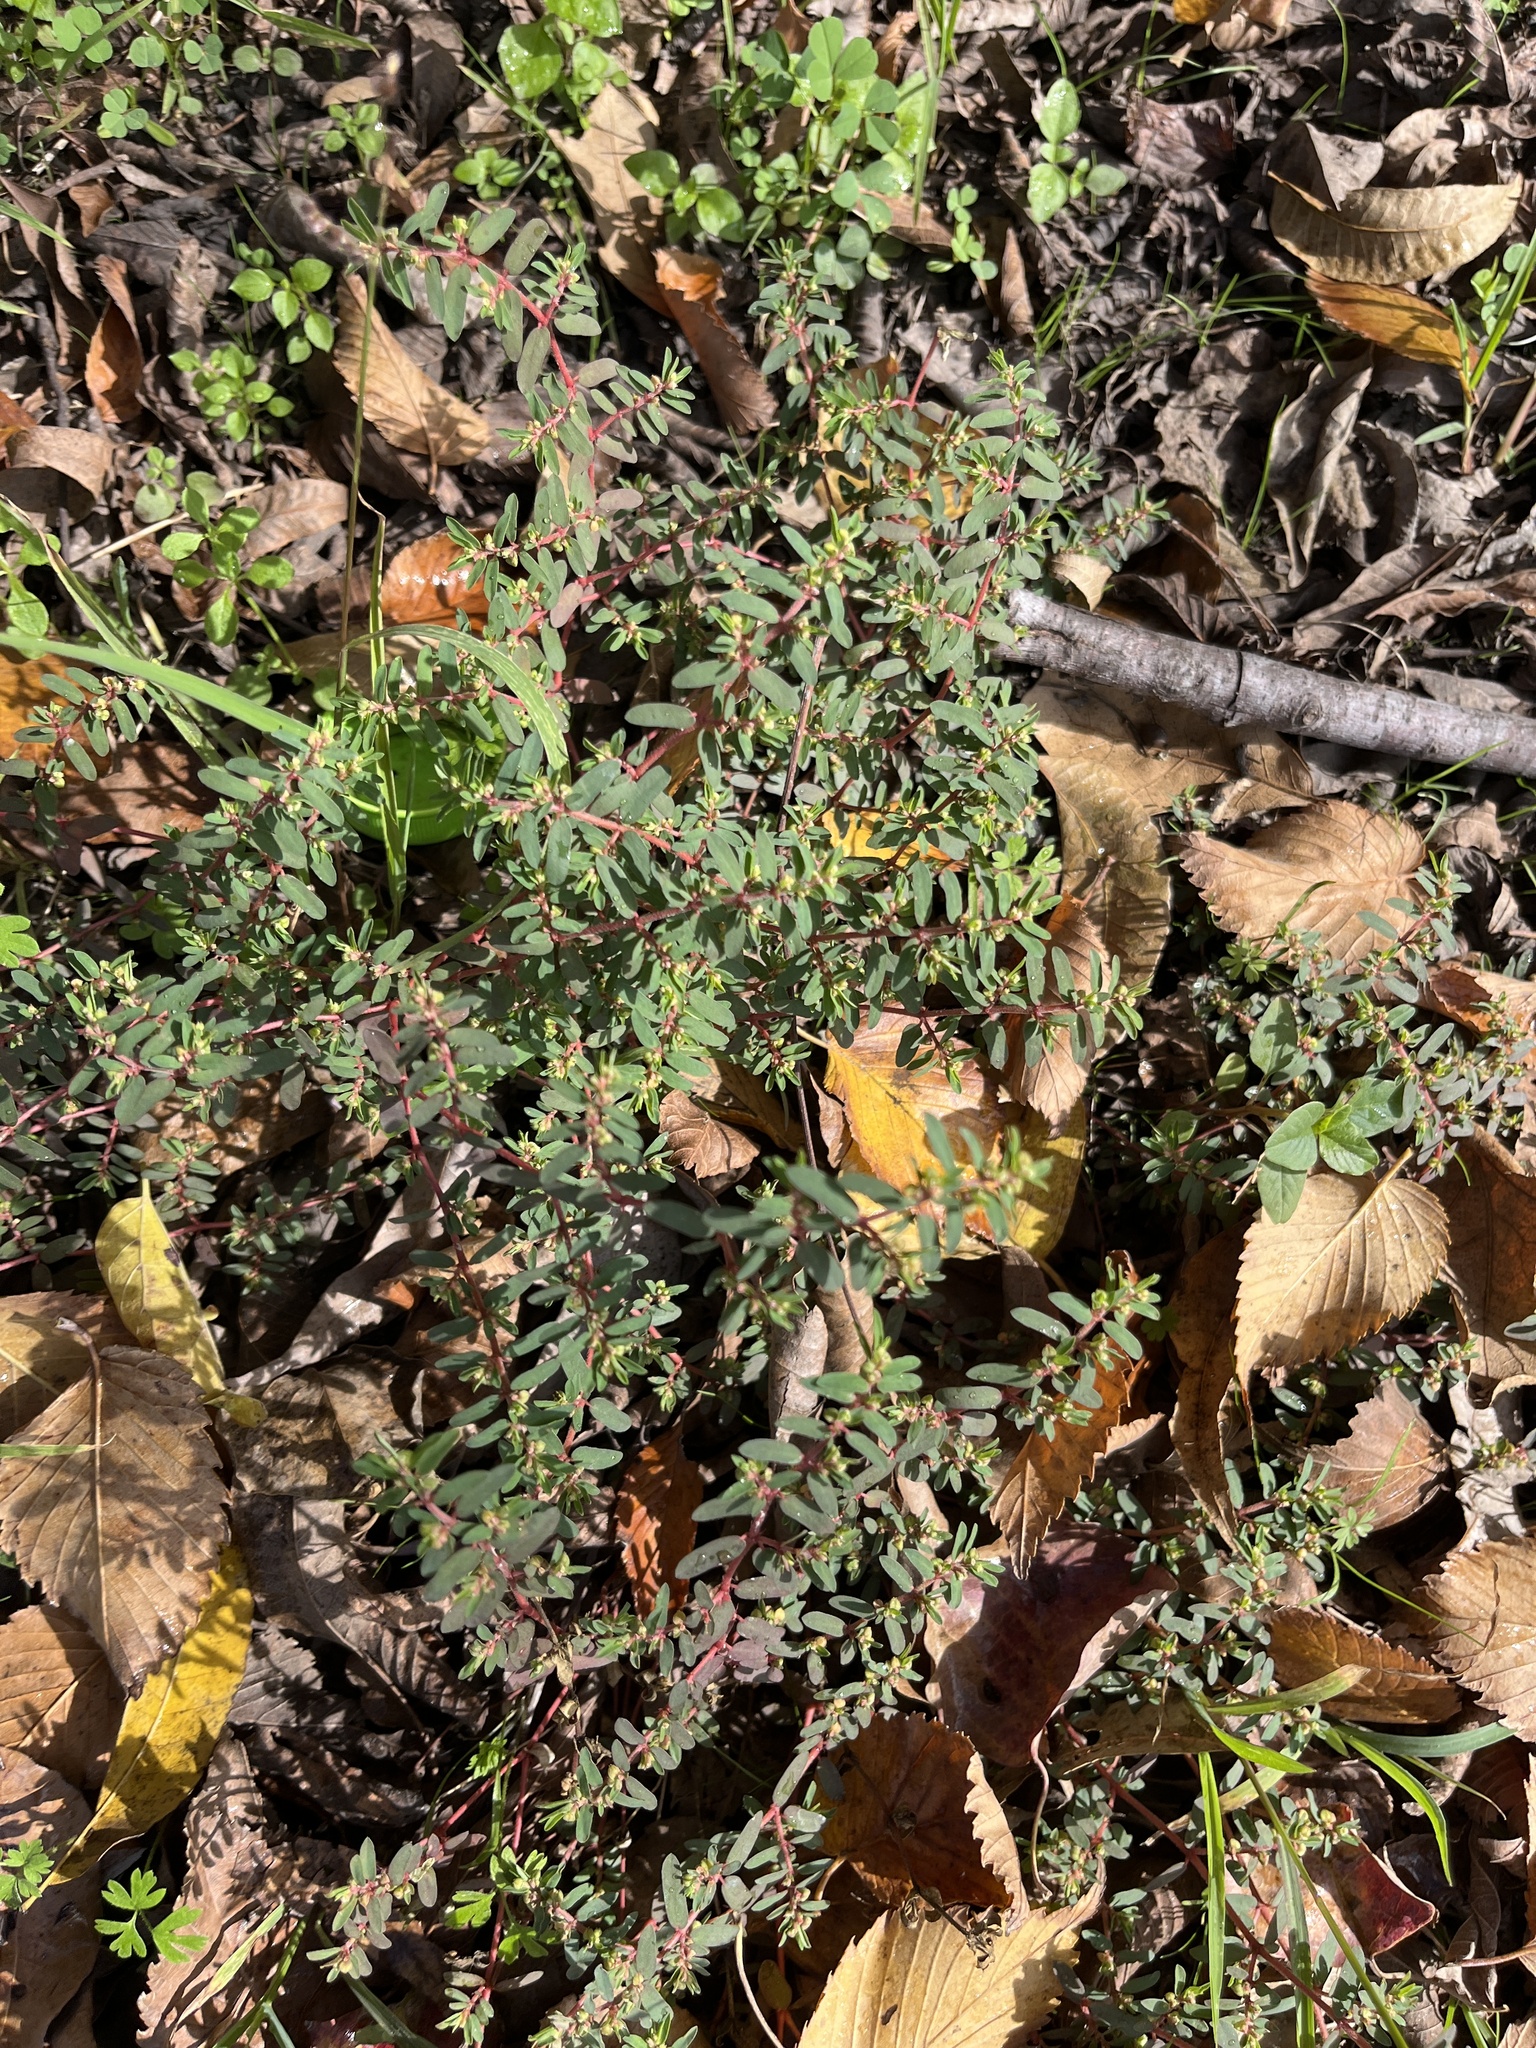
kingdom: Plantae
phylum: Tracheophyta
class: Magnoliopsida
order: Malpighiales
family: Euphorbiaceae
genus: Euphorbia
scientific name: Euphorbia maculata
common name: Spotted spurge
